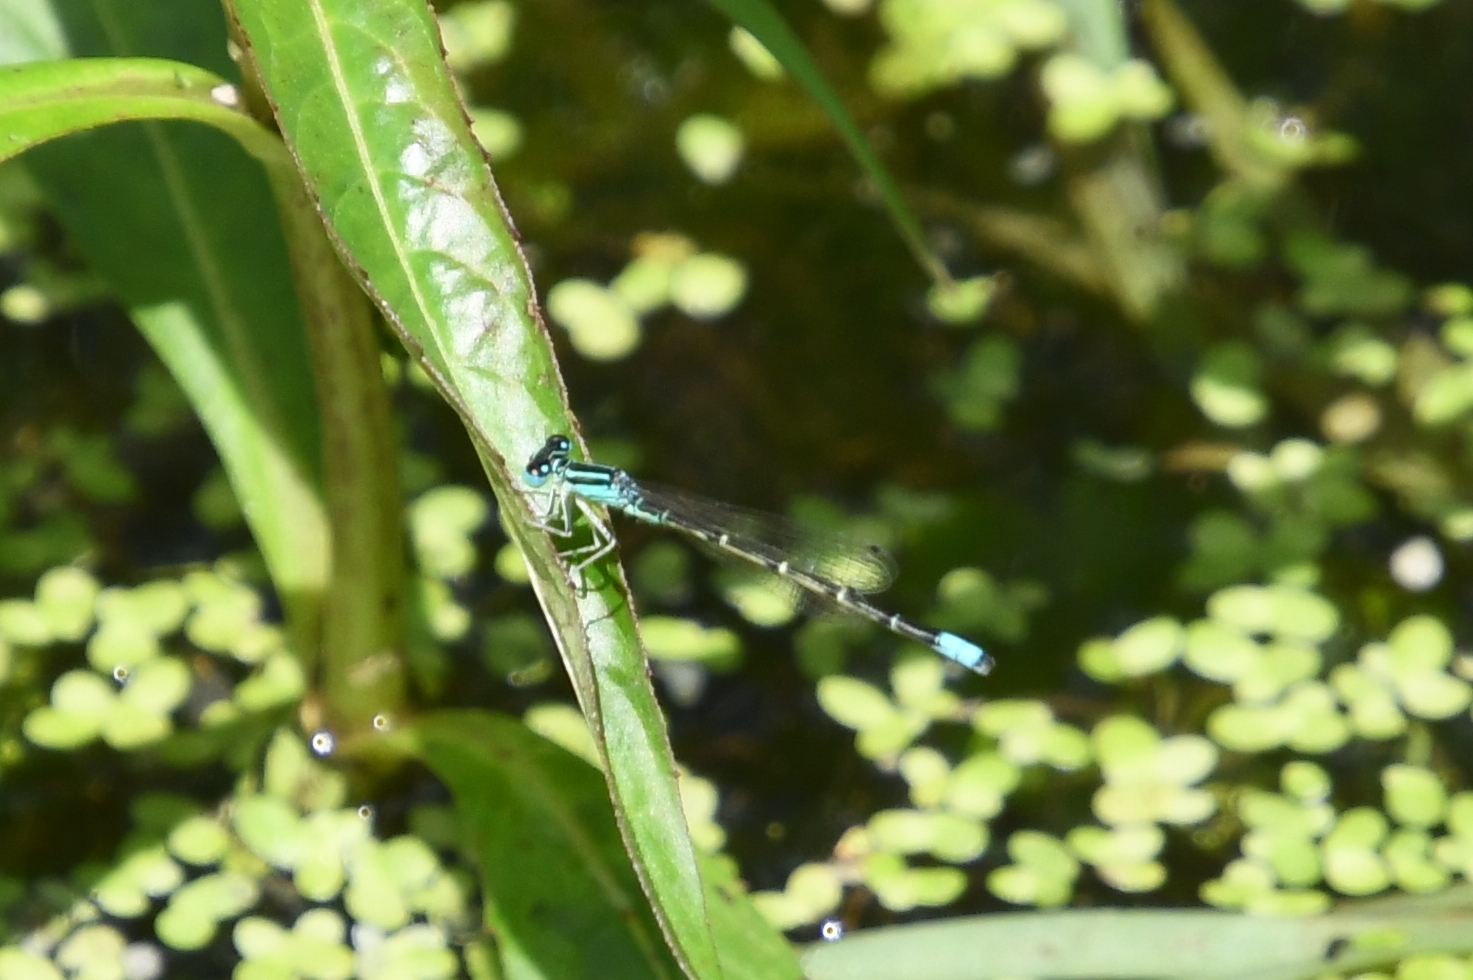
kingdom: Animalia
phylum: Arthropoda
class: Insecta
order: Odonata
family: Coenagrionidae
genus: Ischnura
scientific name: Ischnura demorsa
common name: Mexican forktail
